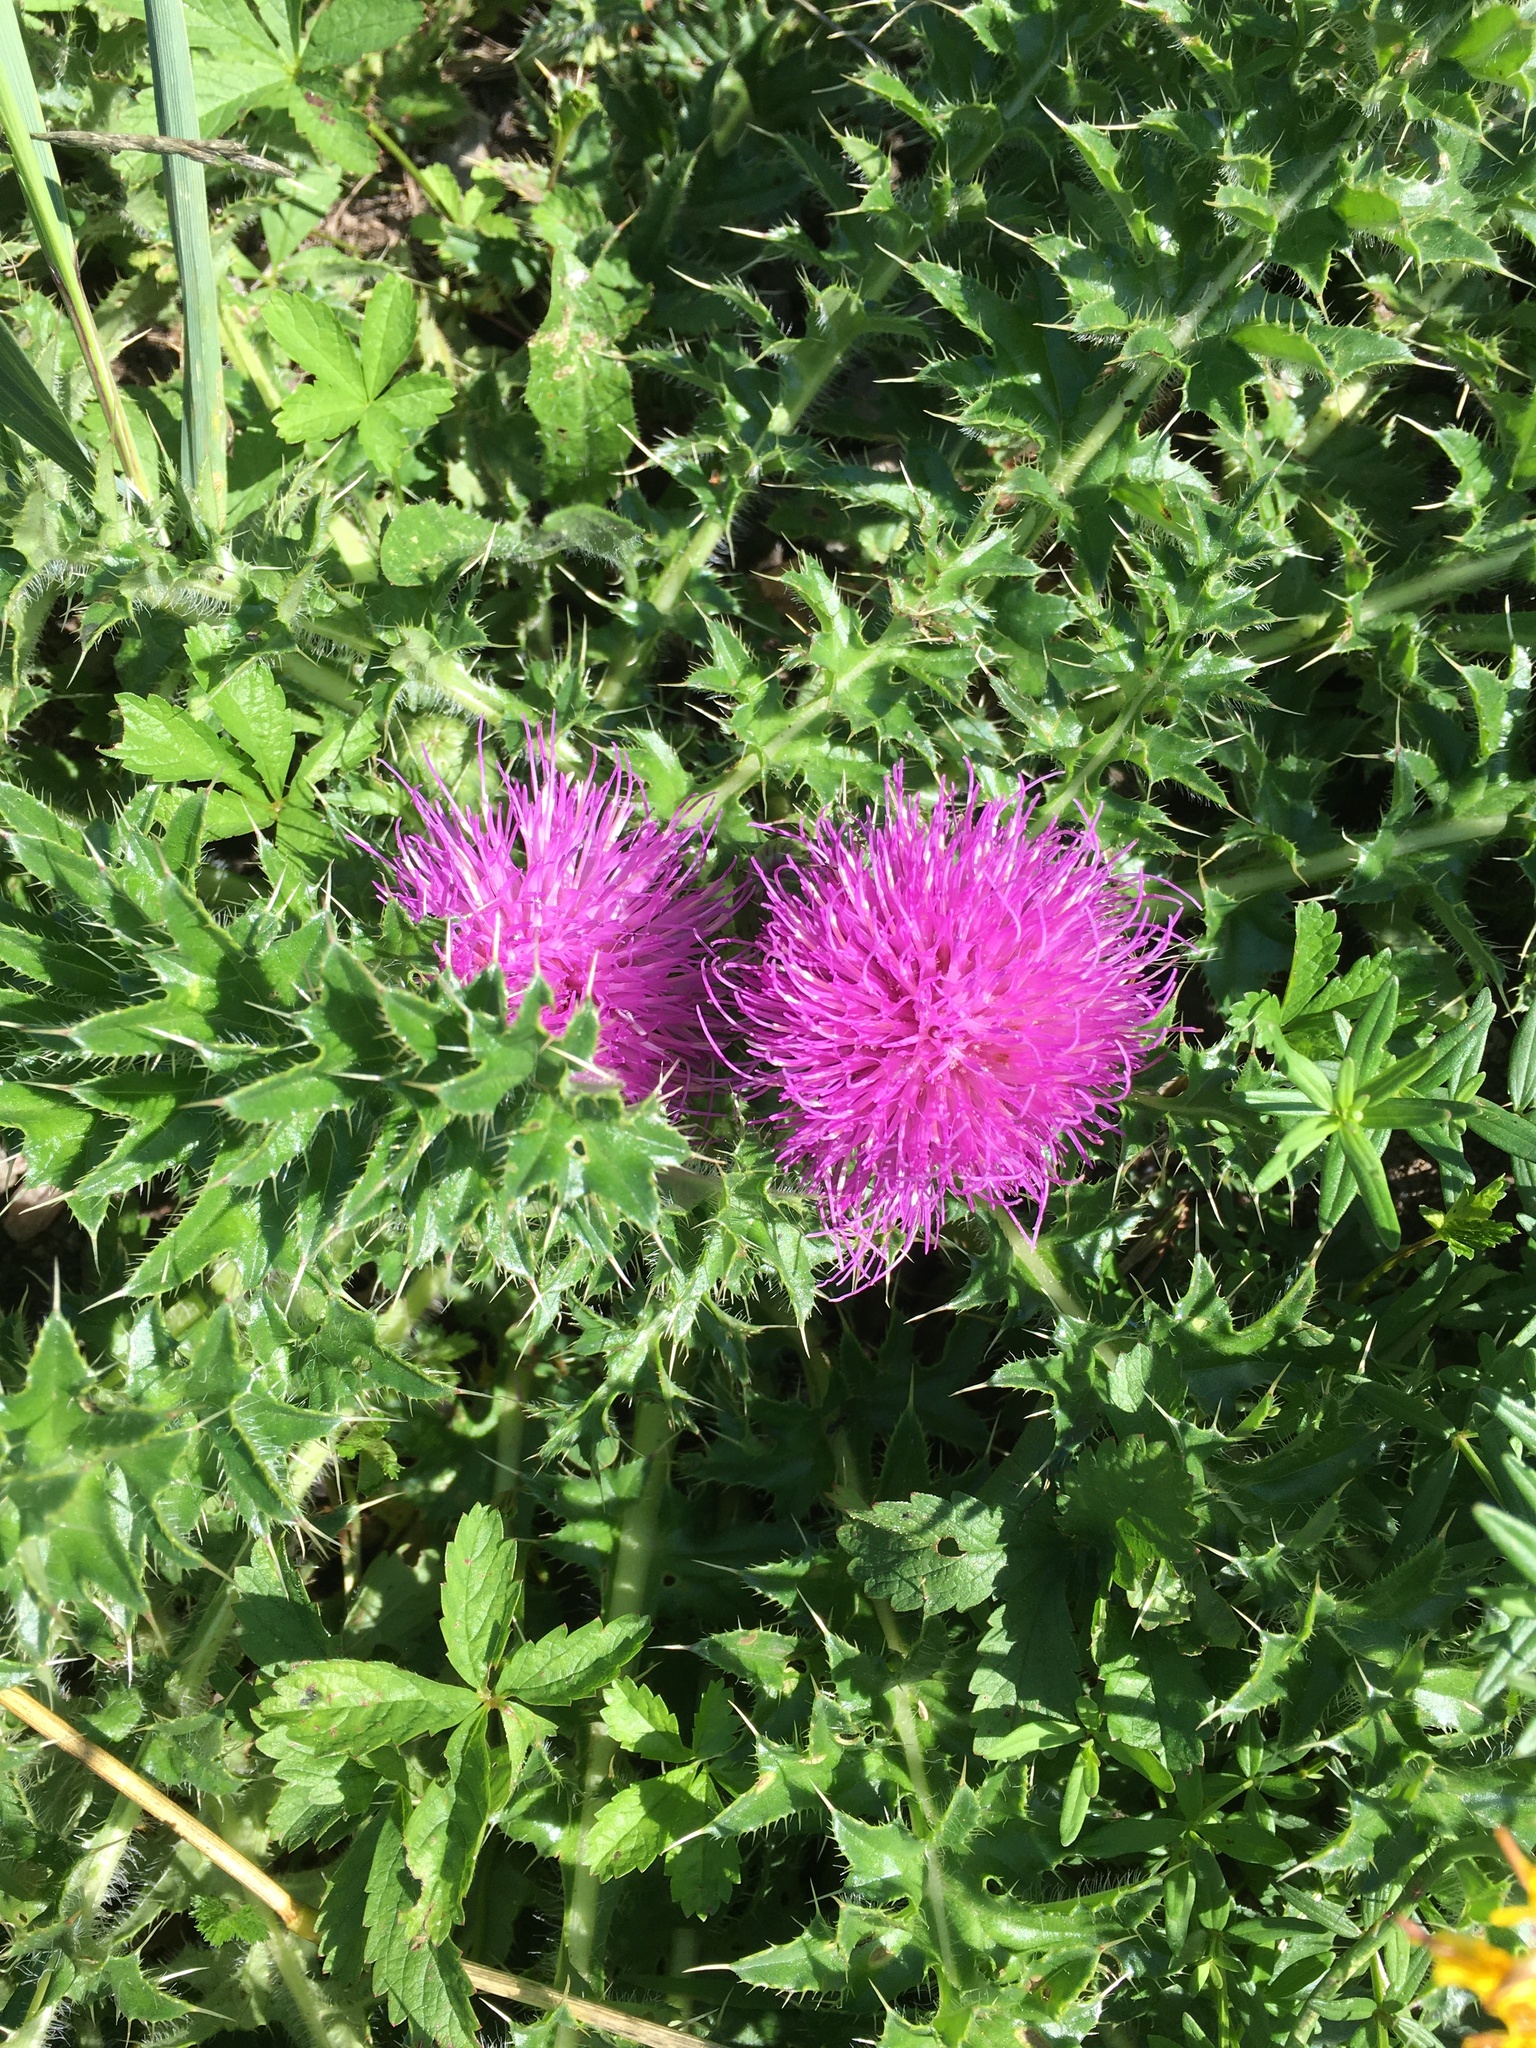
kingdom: Plantae
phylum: Tracheophyta
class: Magnoliopsida
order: Asterales
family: Asteraceae
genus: Cirsium
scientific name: Cirsium acaulon
